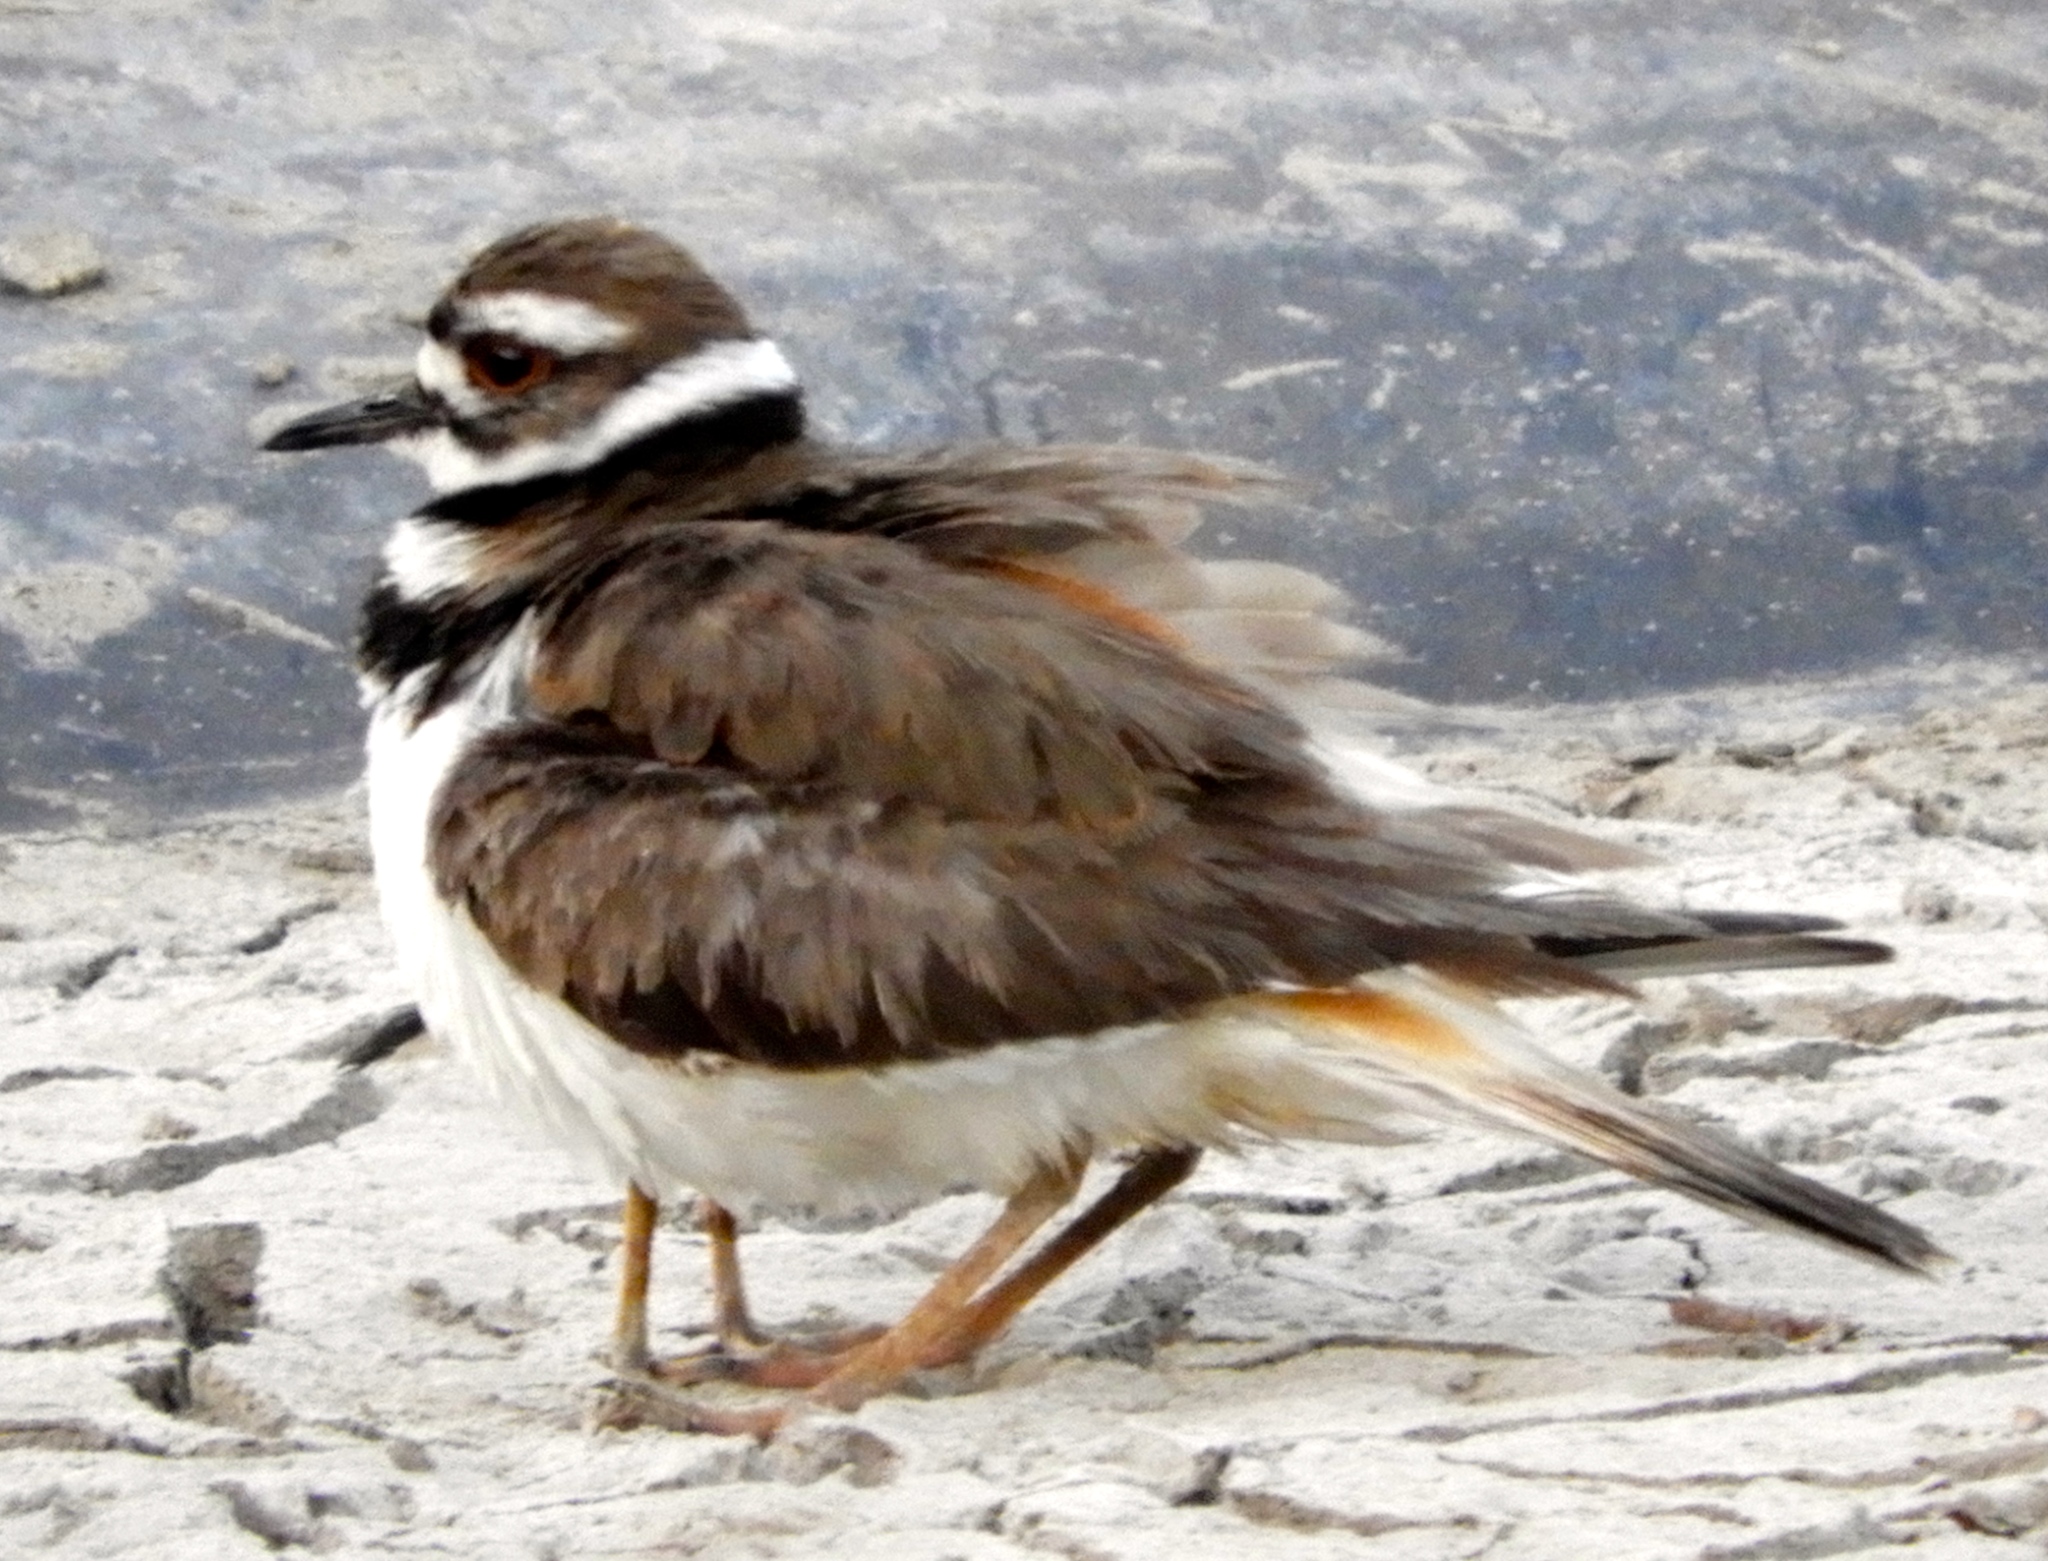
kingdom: Animalia
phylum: Chordata
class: Aves
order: Charadriiformes
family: Charadriidae
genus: Charadrius
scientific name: Charadrius vociferus
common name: Killdeer
